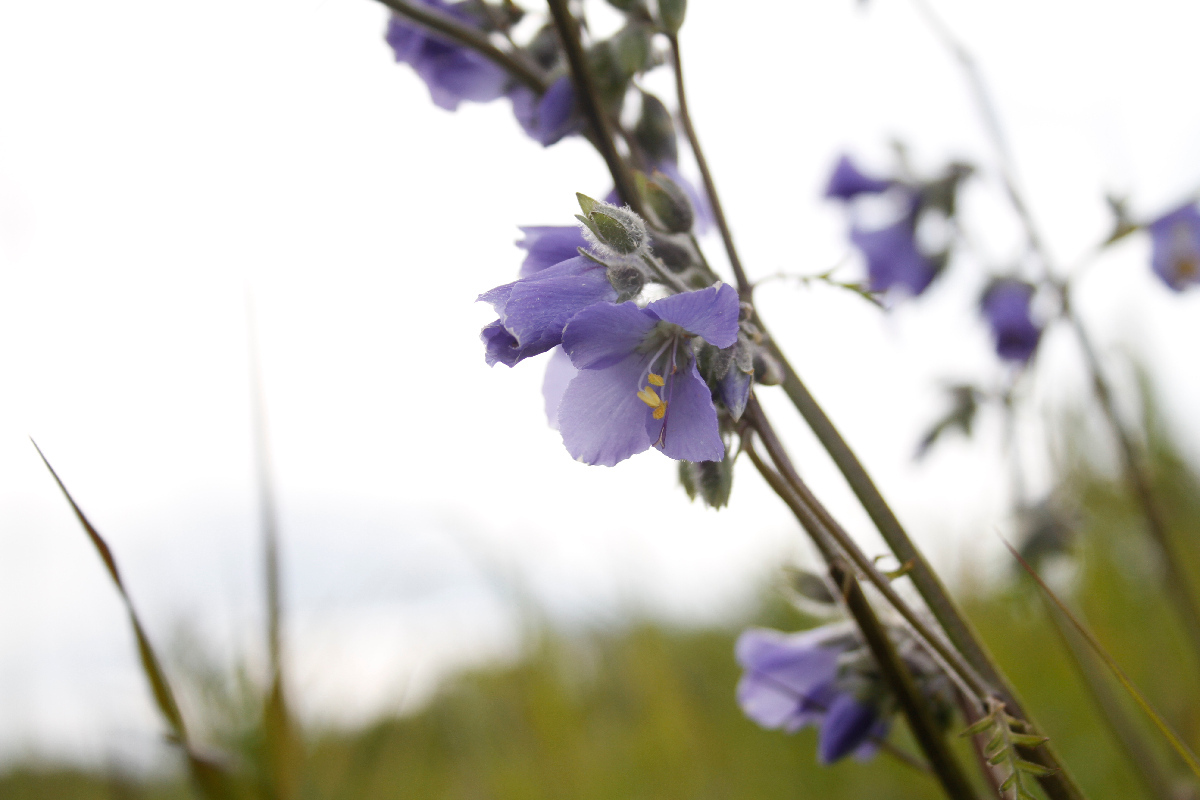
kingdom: Plantae
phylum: Tracheophyta
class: Magnoliopsida
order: Ericales
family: Polemoniaceae
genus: Polemonium
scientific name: Polemonium acutiflorum
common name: Tall jacob's-ladder
